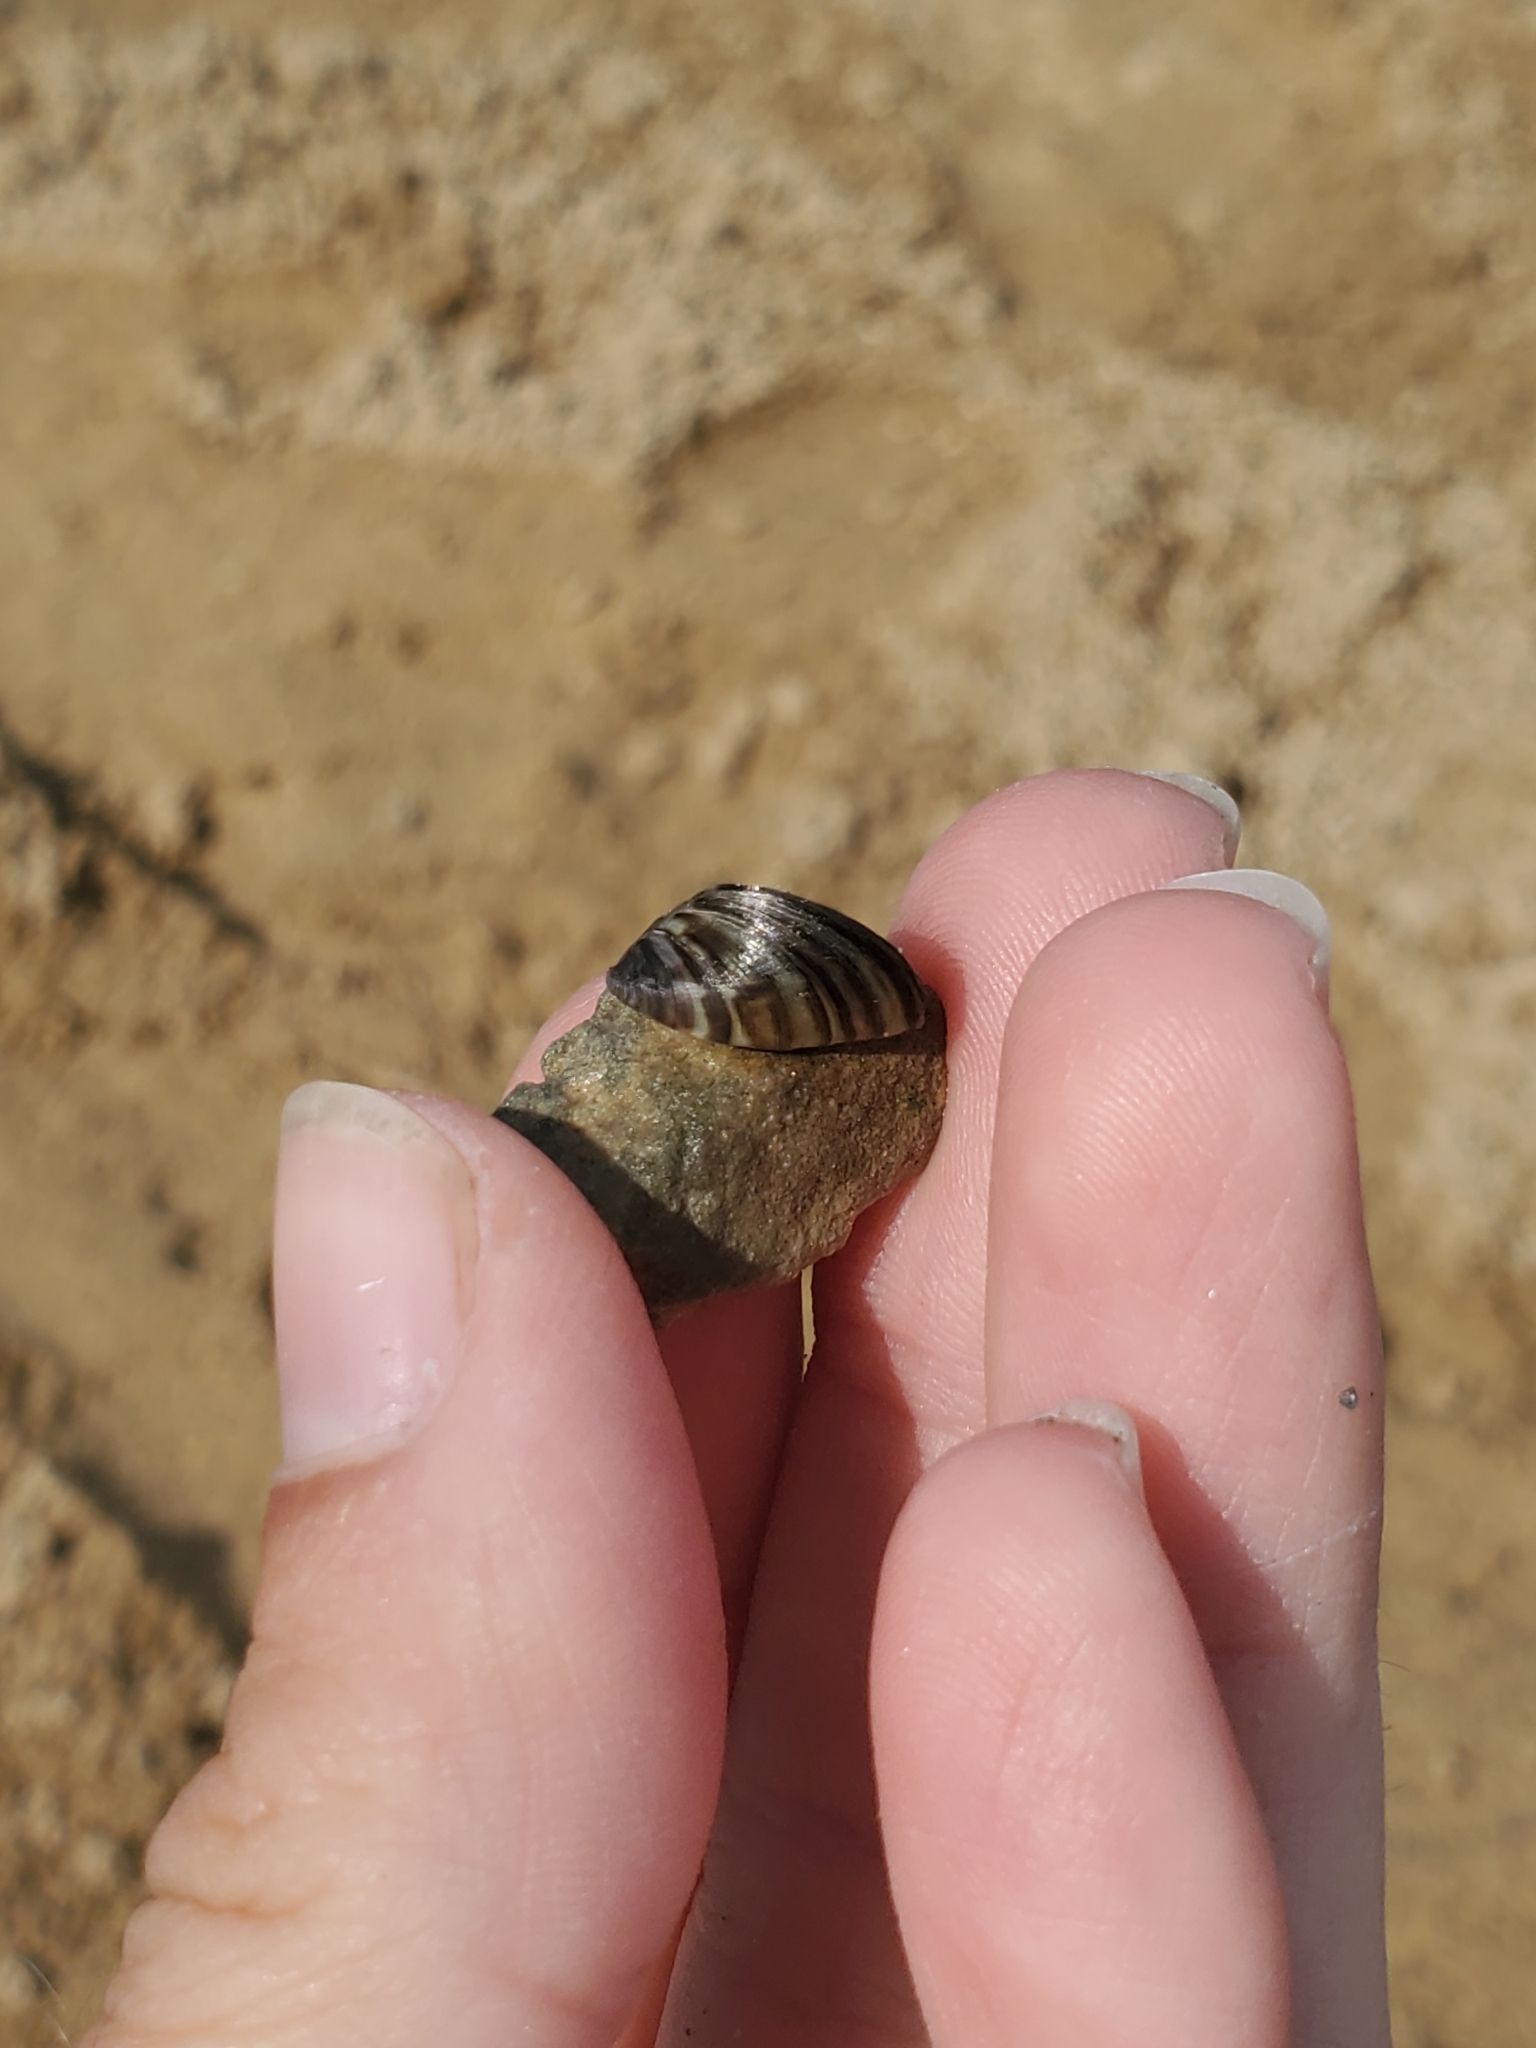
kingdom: Animalia
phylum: Mollusca
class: Bivalvia
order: Myida
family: Dreissenidae
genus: Dreissena
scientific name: Dreissena polymorpha
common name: Zebra mussel
